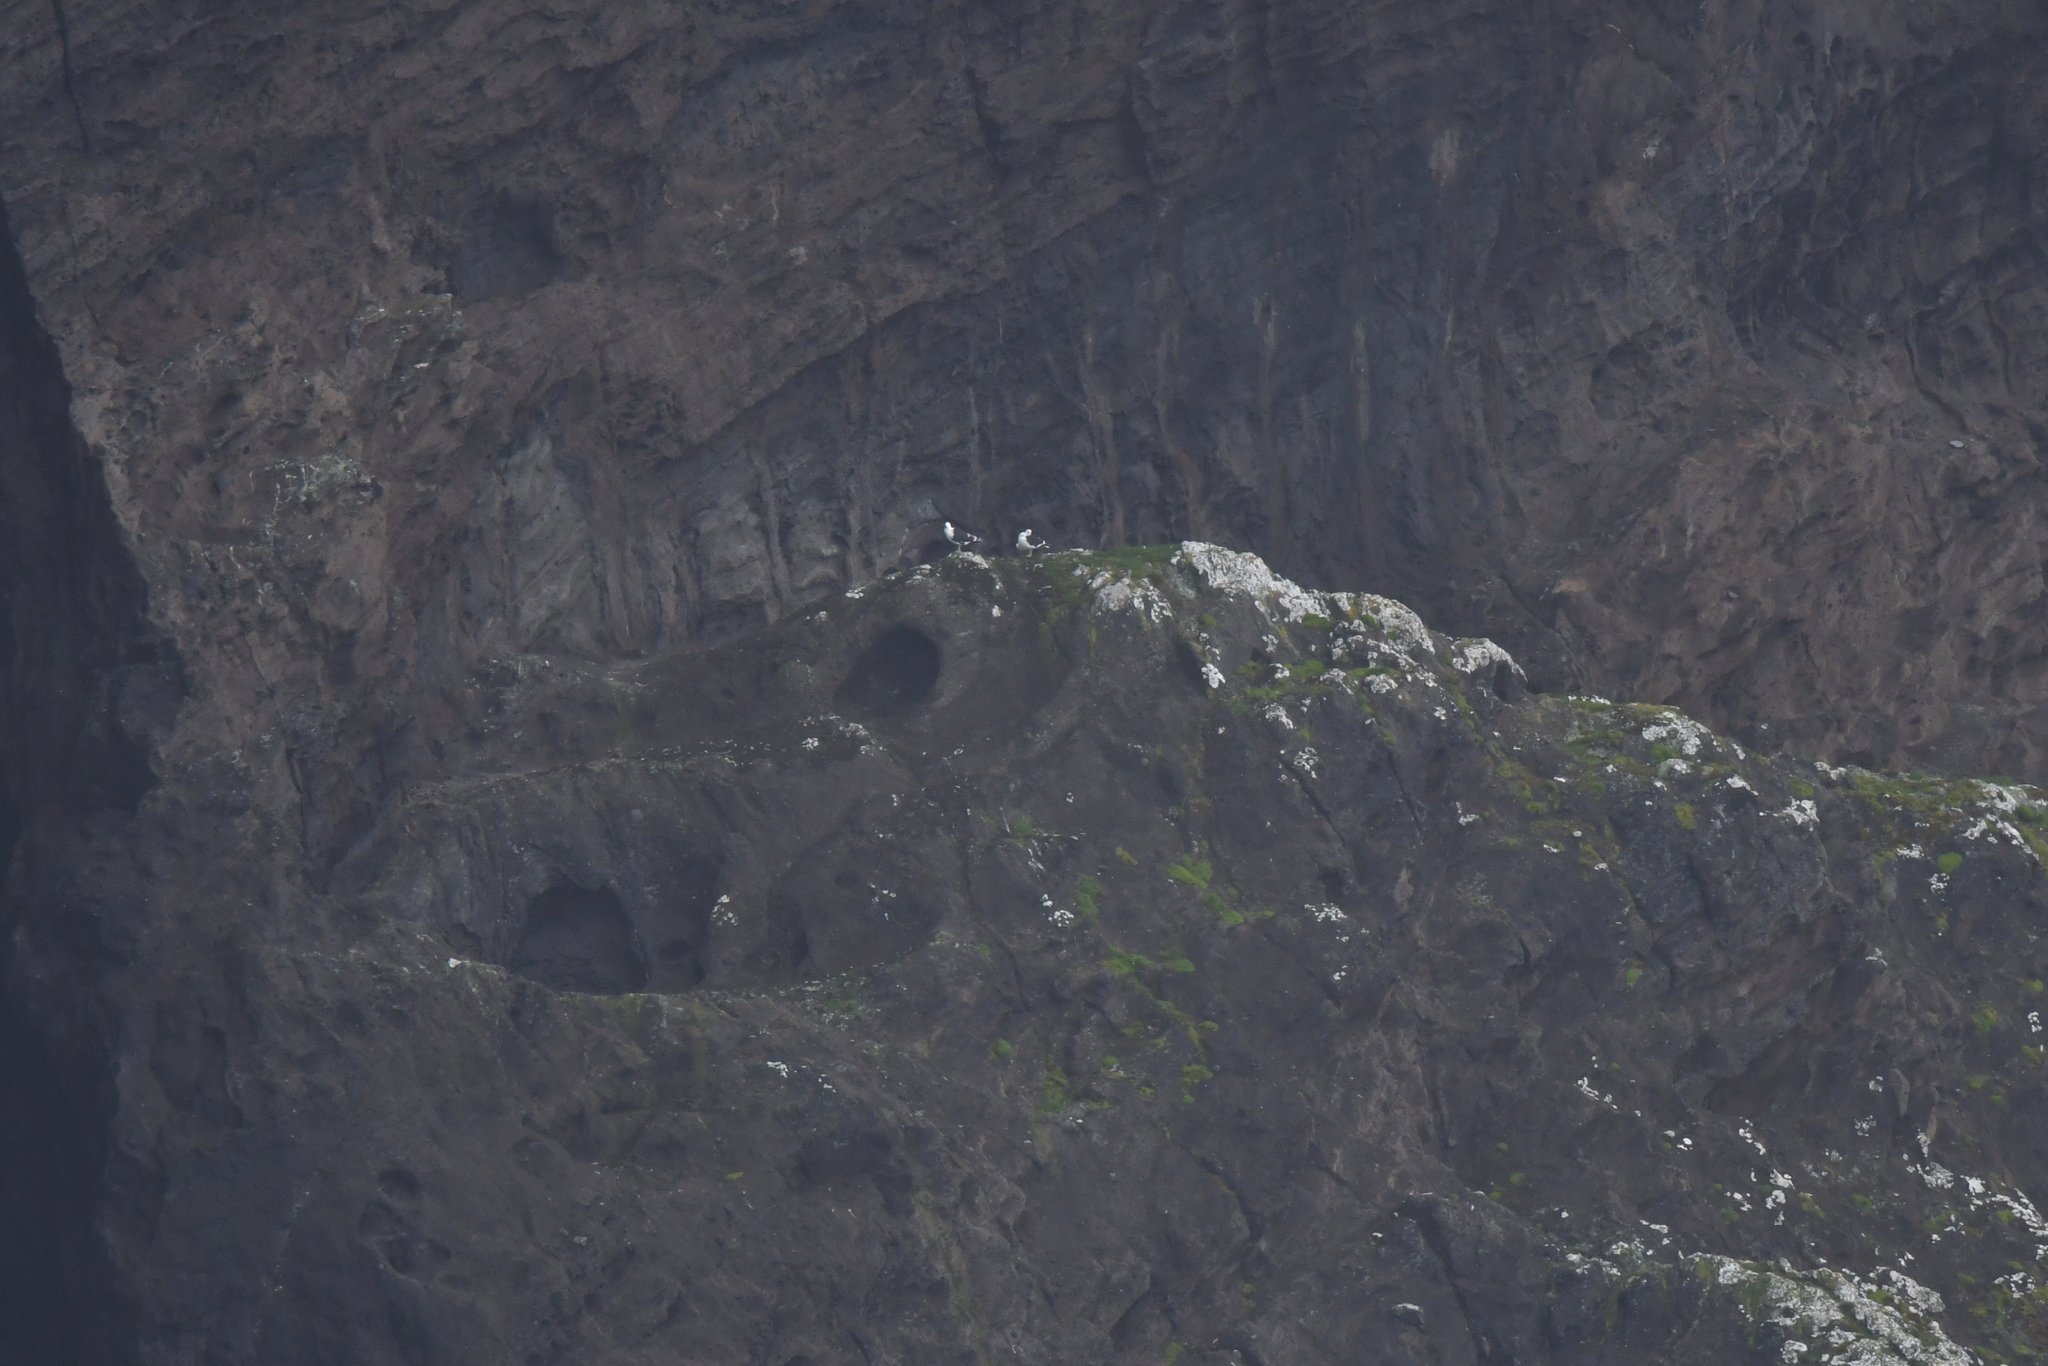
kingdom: Animalia
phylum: Chordata
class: Aves
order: Charadriiformes
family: Laridae
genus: Larus
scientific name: Larus dominicanus
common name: Kelp gull
